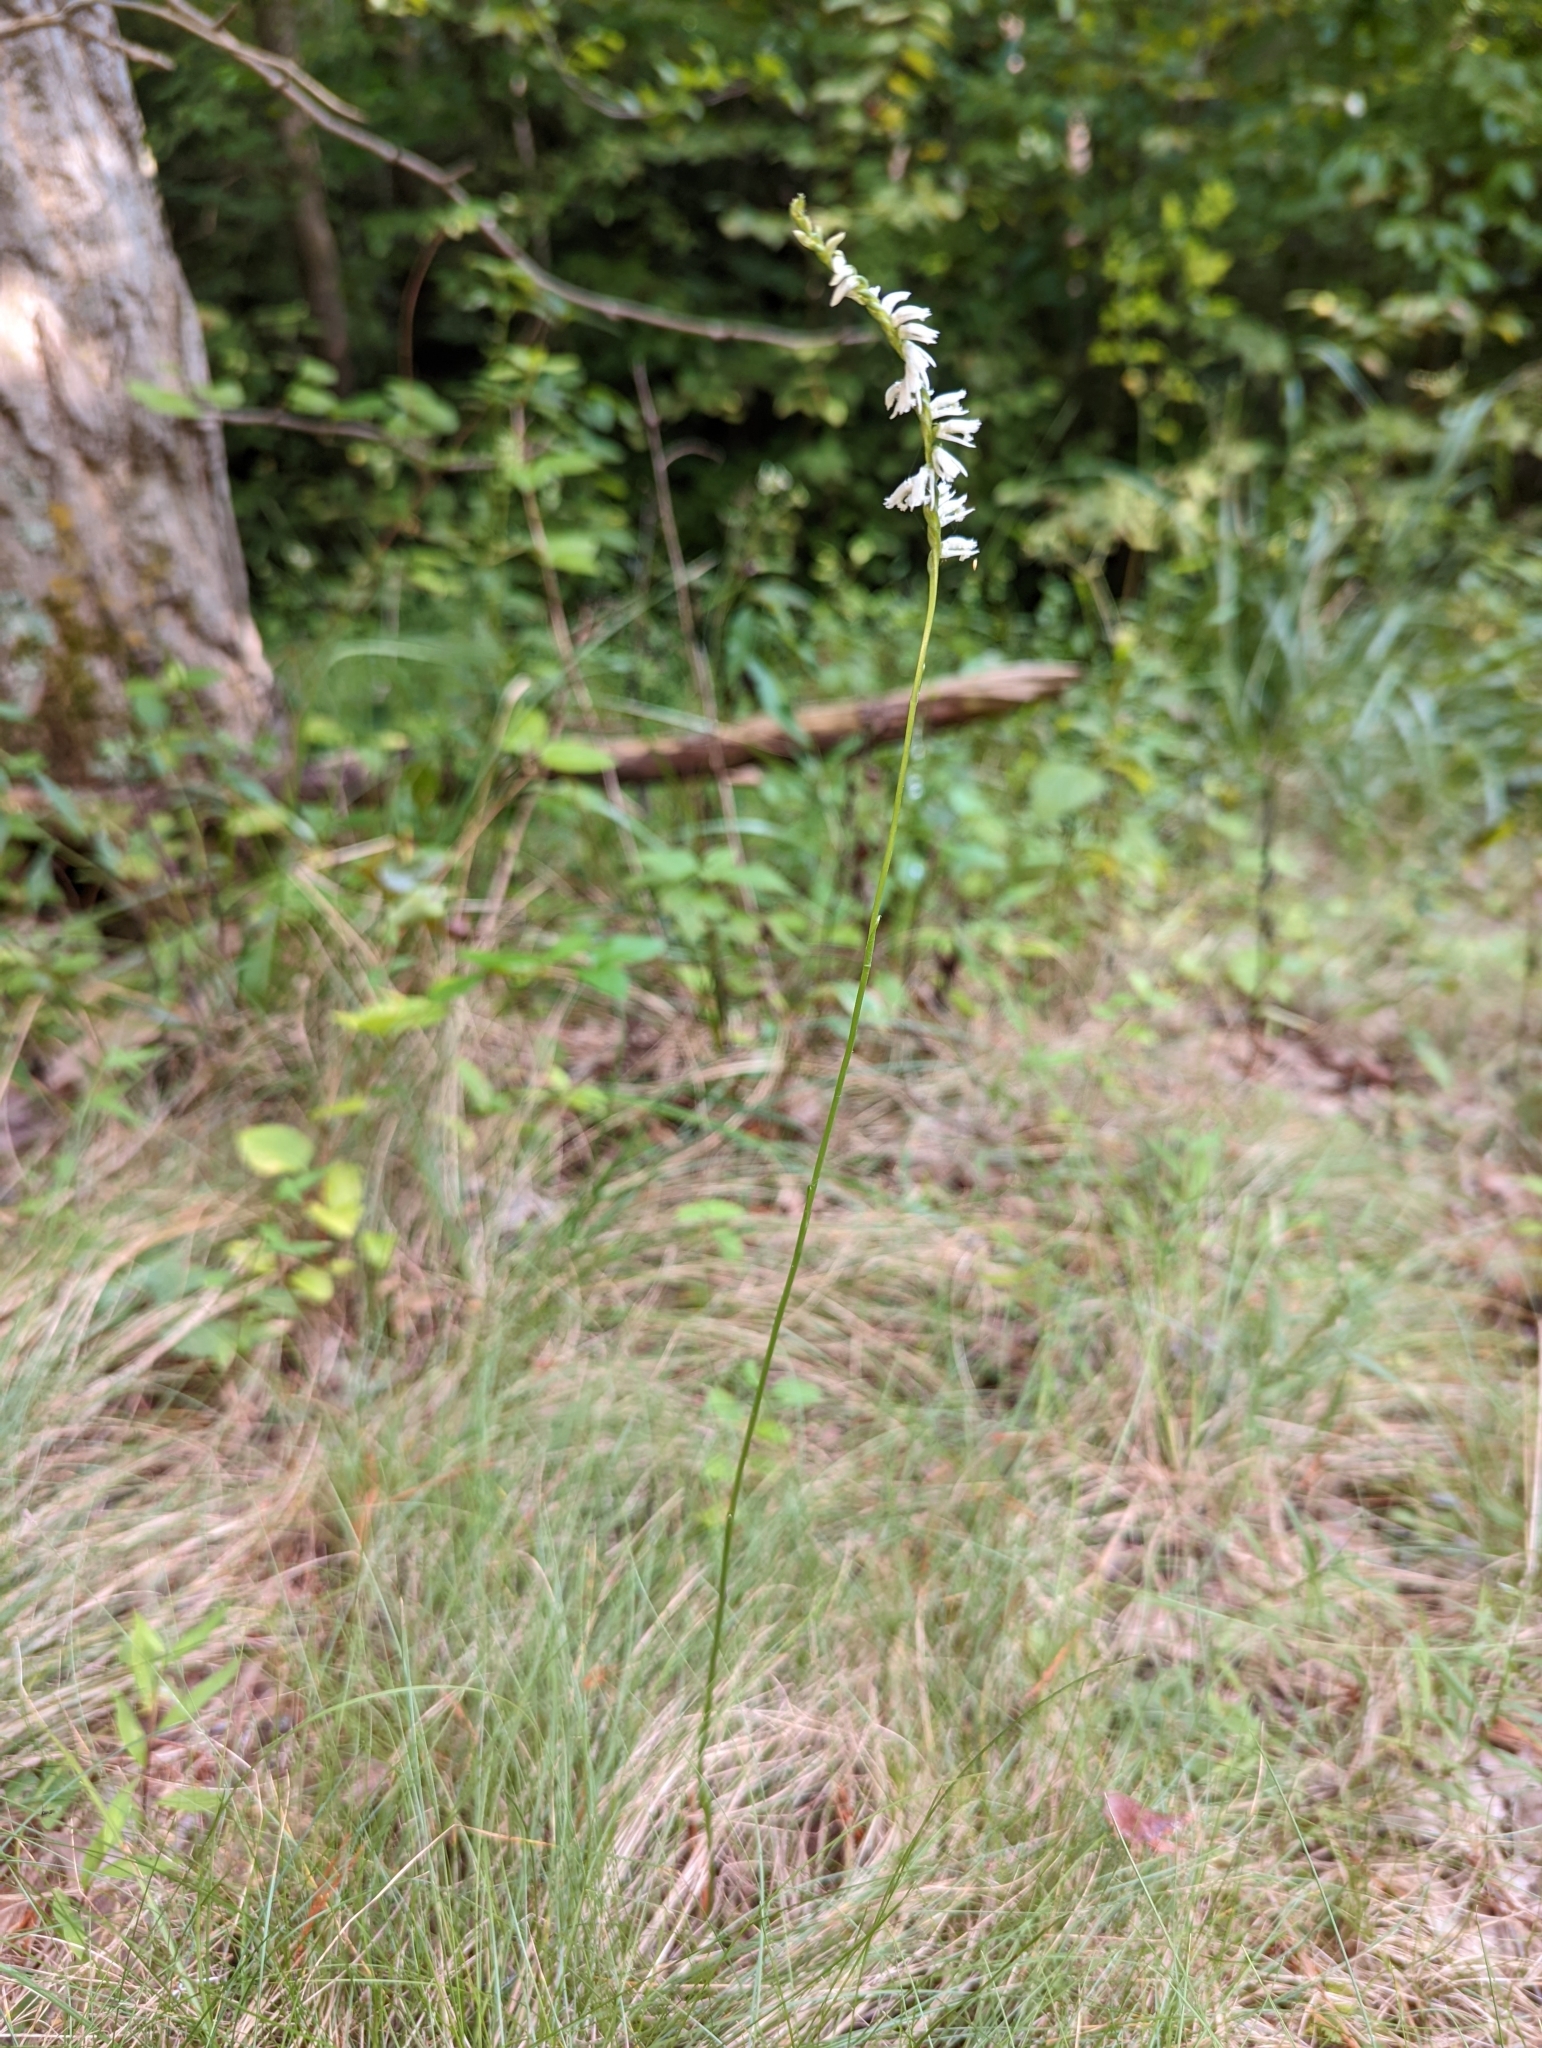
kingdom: Plantae
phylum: Tracheophyta
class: Liliopsida
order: Asparagales
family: Orchidaceae
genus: Spiranthes
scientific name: Spiranthes lacera
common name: Northern slender ladies'-tresses
